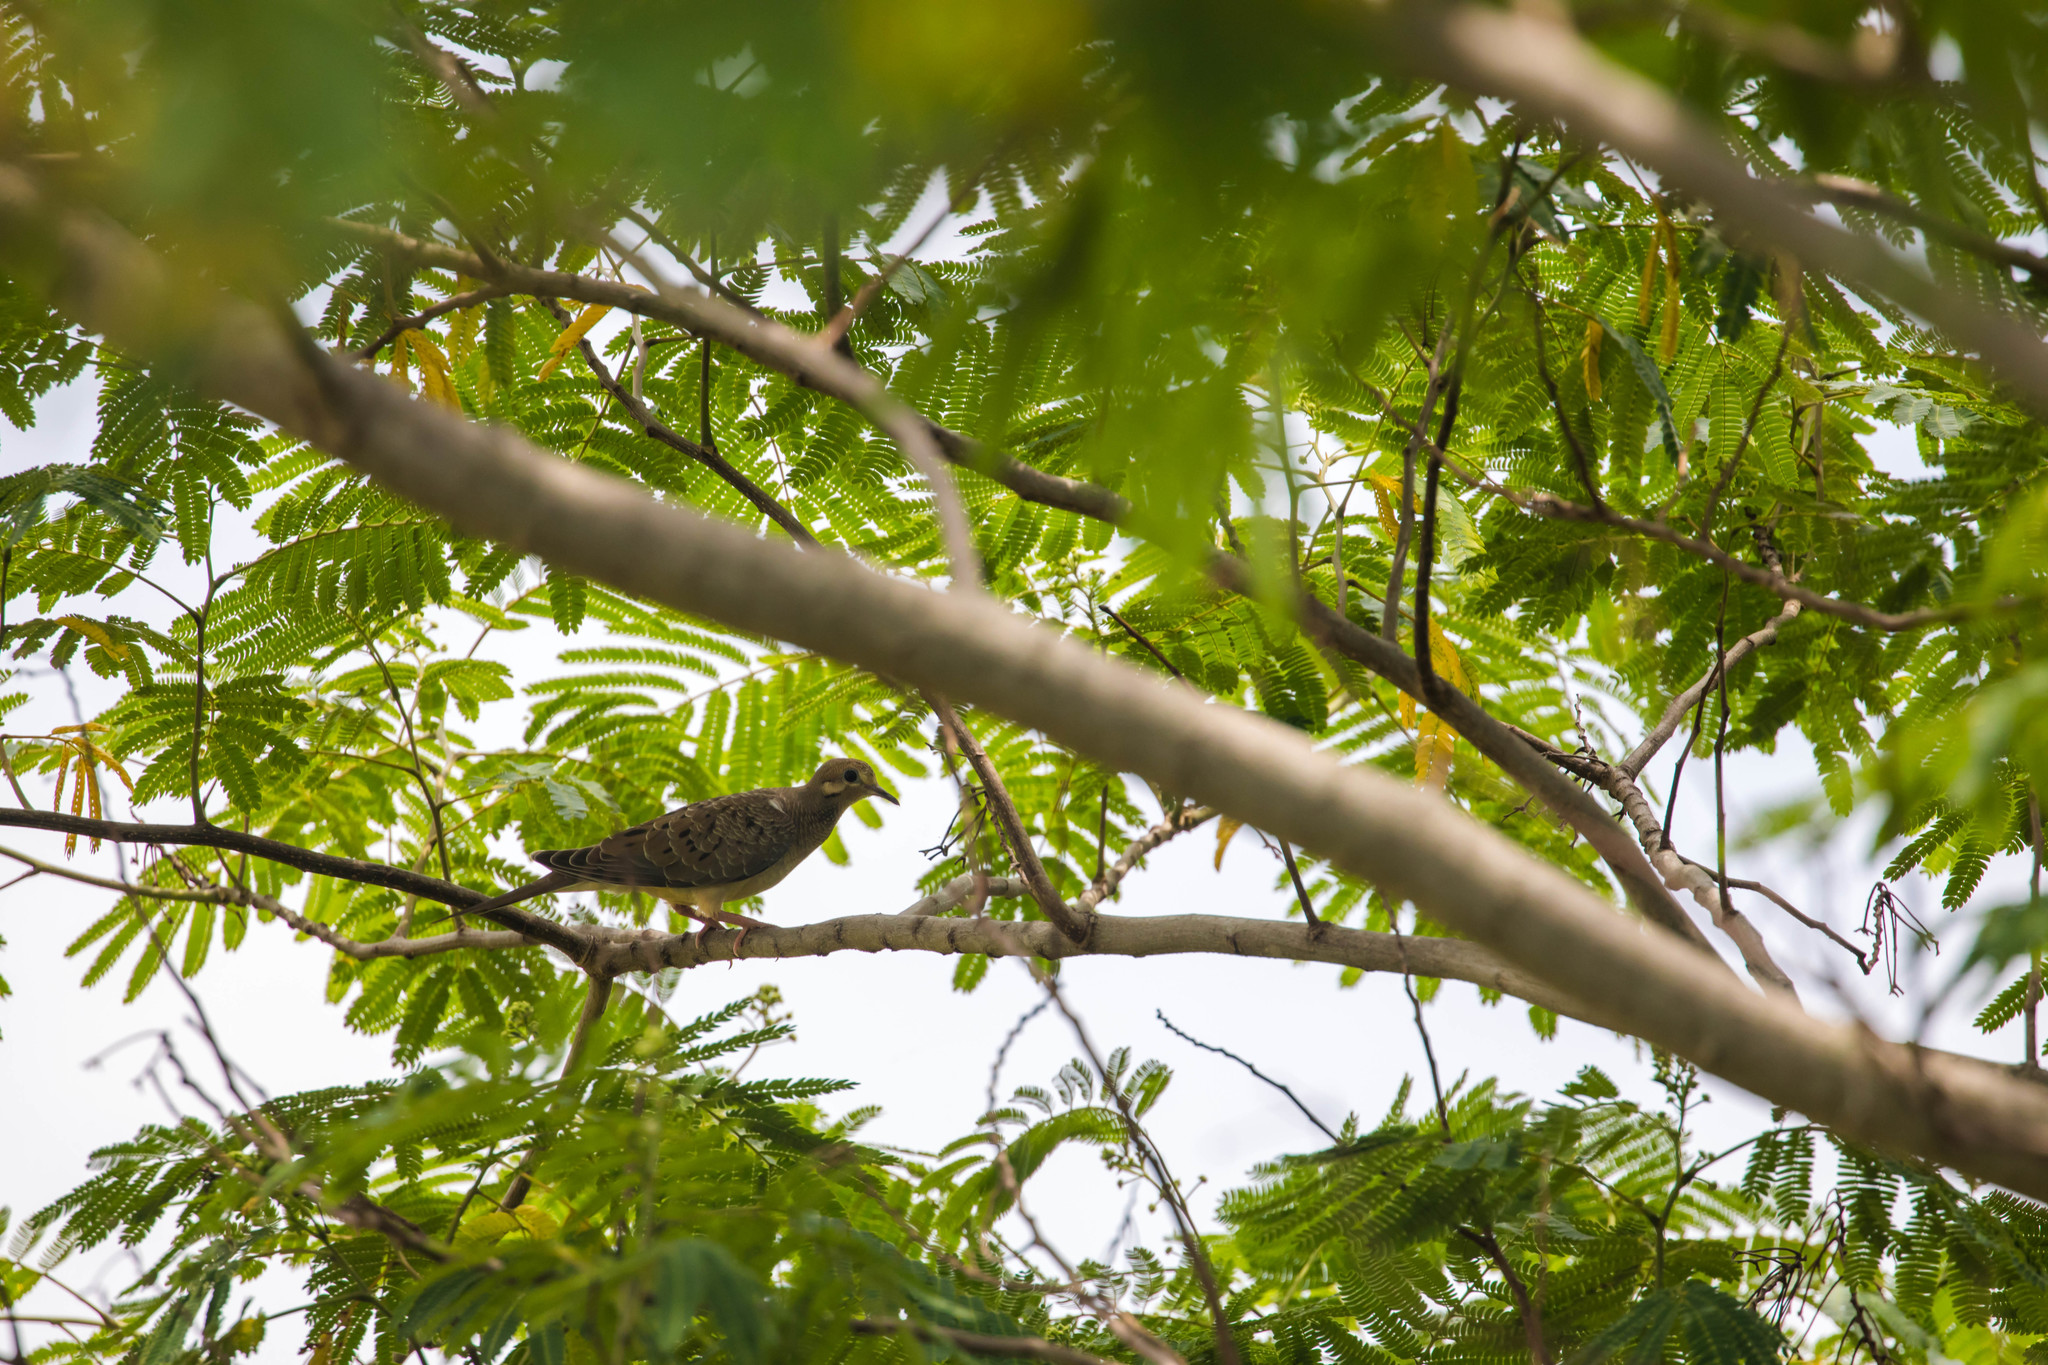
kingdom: Animalia
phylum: Chordata
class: Aves
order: Columbiformes
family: Columbidae
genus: Zenaida
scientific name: Zenaida macroura
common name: Mourning dove
